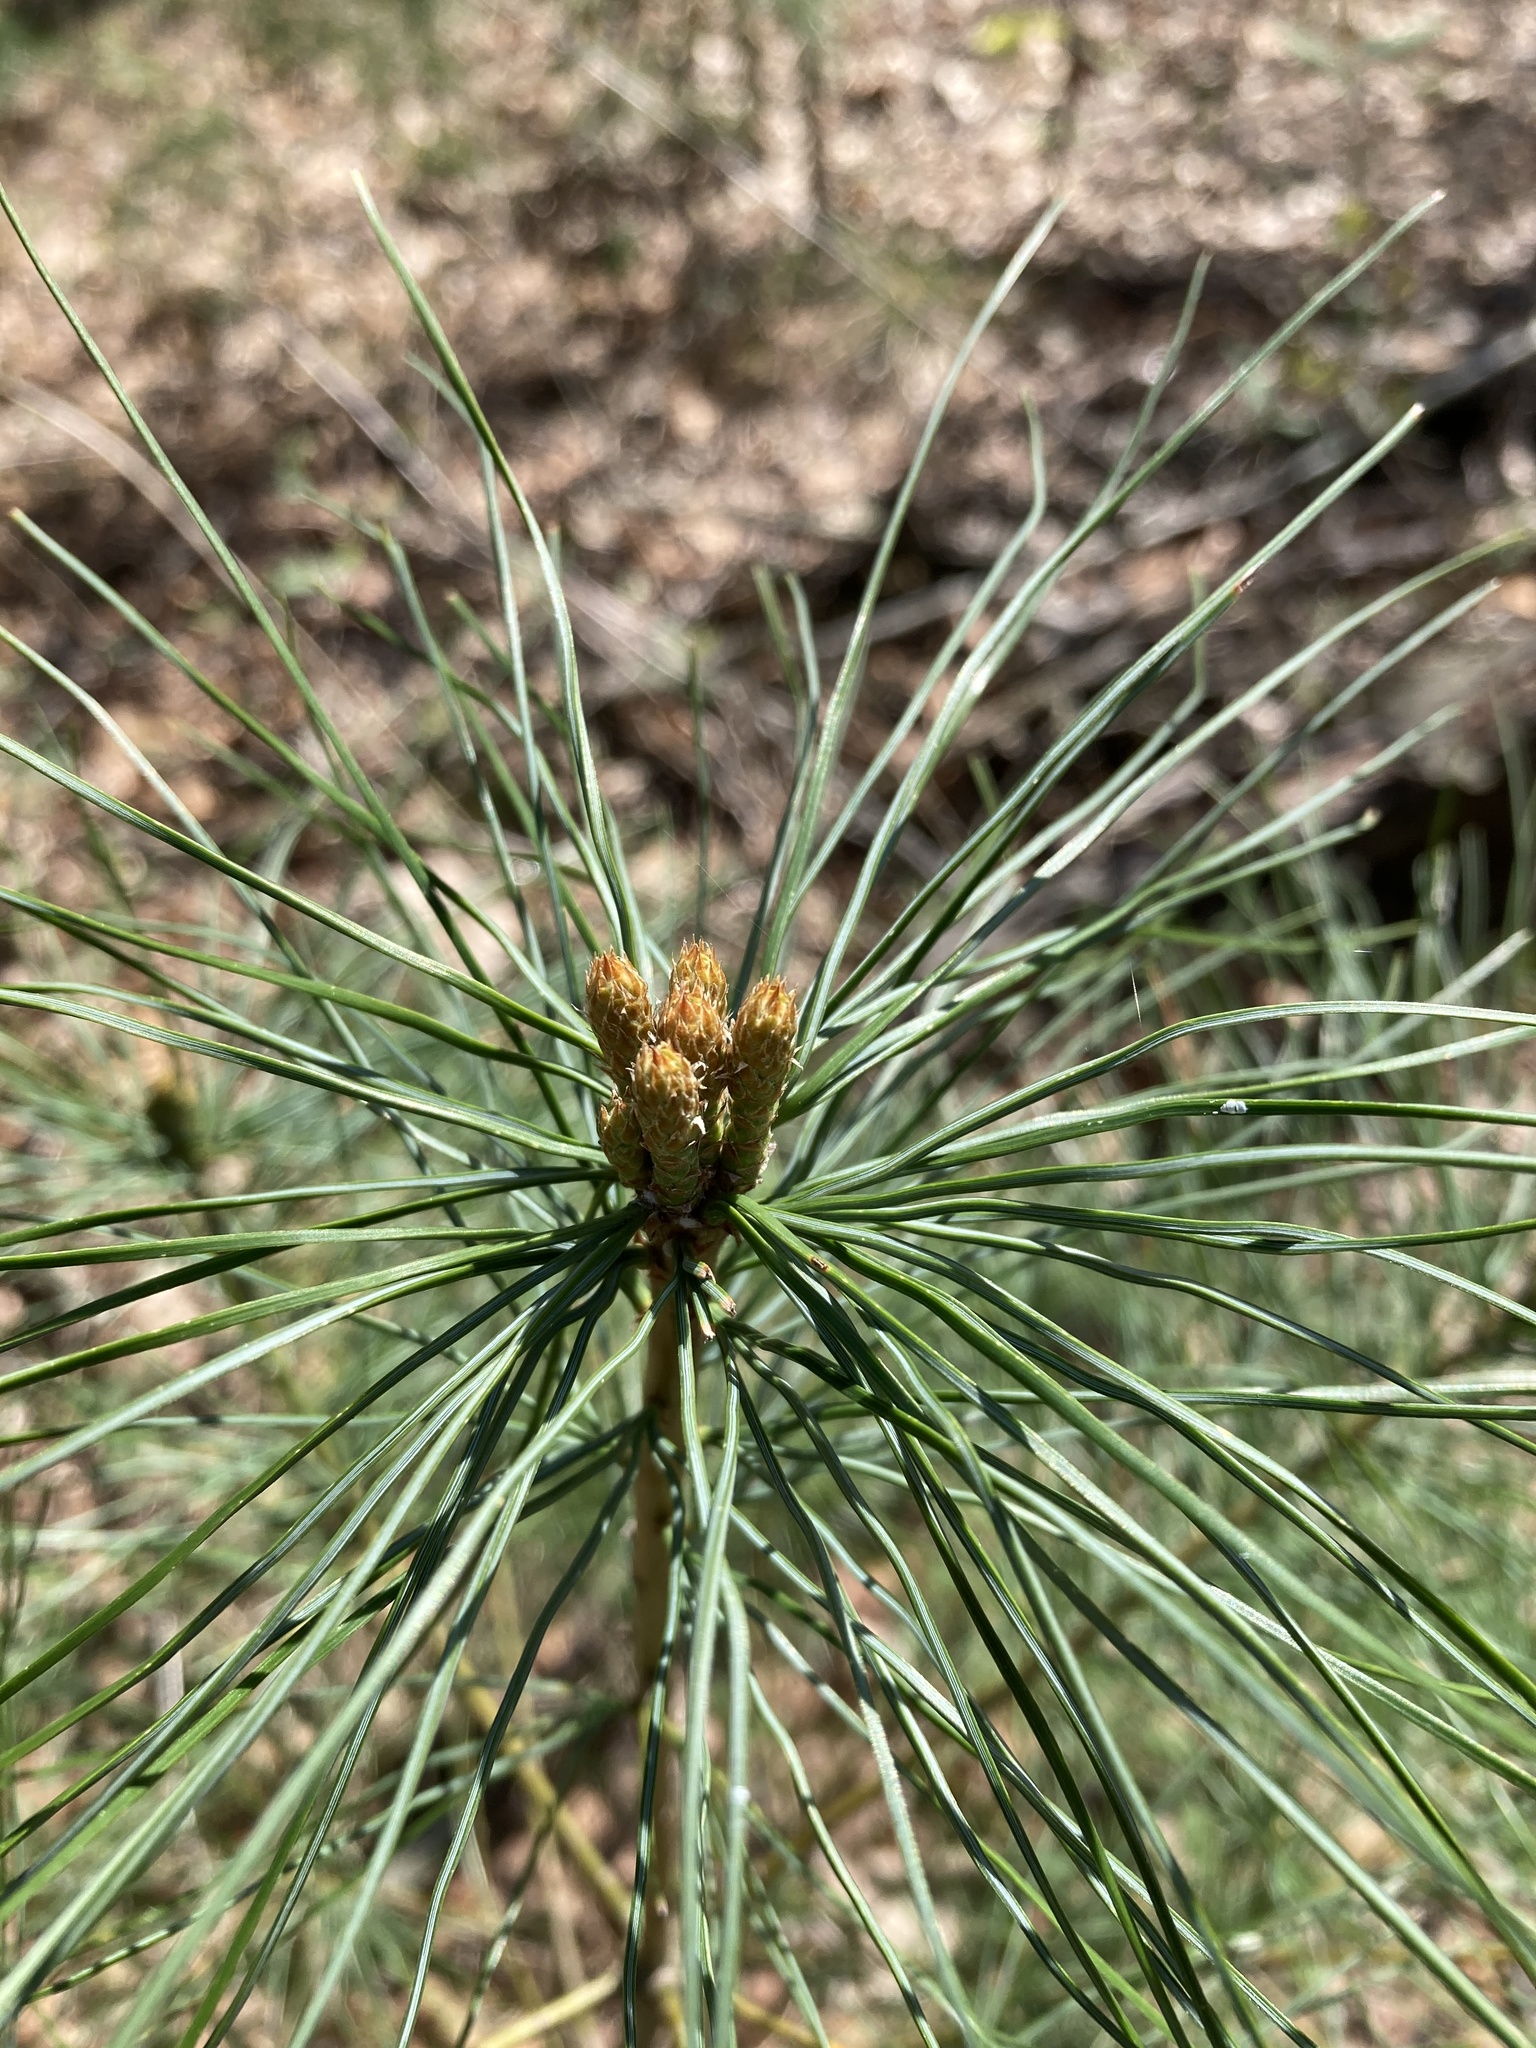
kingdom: Plantae
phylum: Tracheophyta
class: Pinopsida
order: Pinales
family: Pinaceae
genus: Pinus
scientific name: Pinus strobus
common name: Weymouth pine
